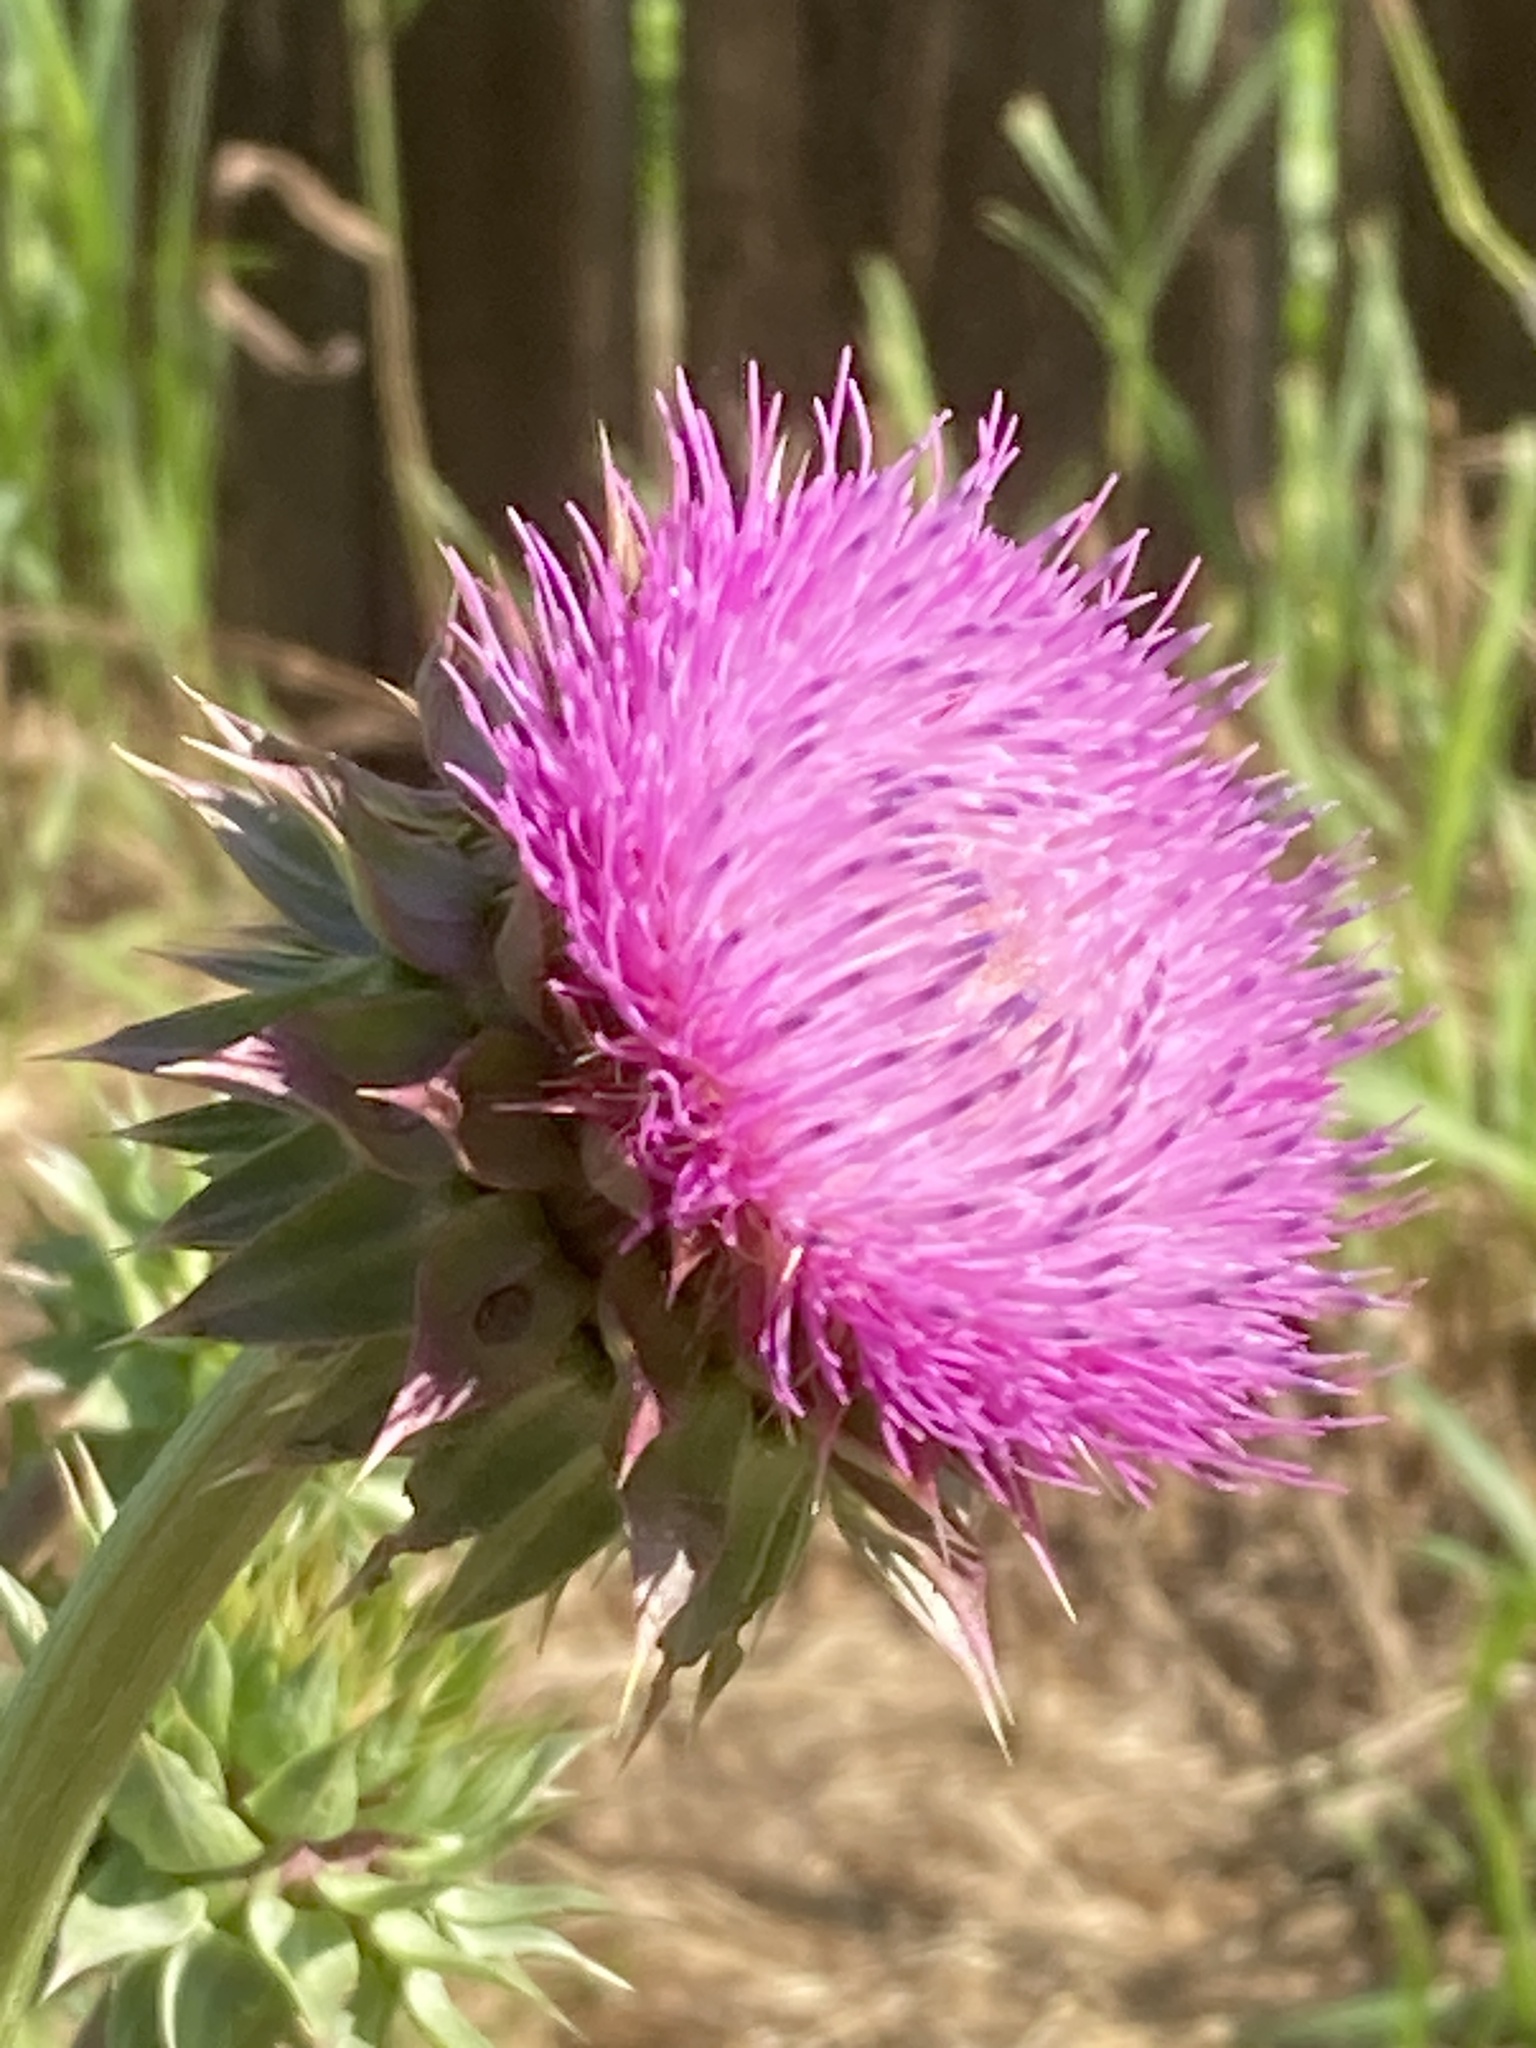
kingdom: Plantae
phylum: Tracheophyta
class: Magnoliopsida
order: Asterales
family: Asteraceae
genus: Carduus
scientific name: Carduus nutans
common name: Musk thistle
